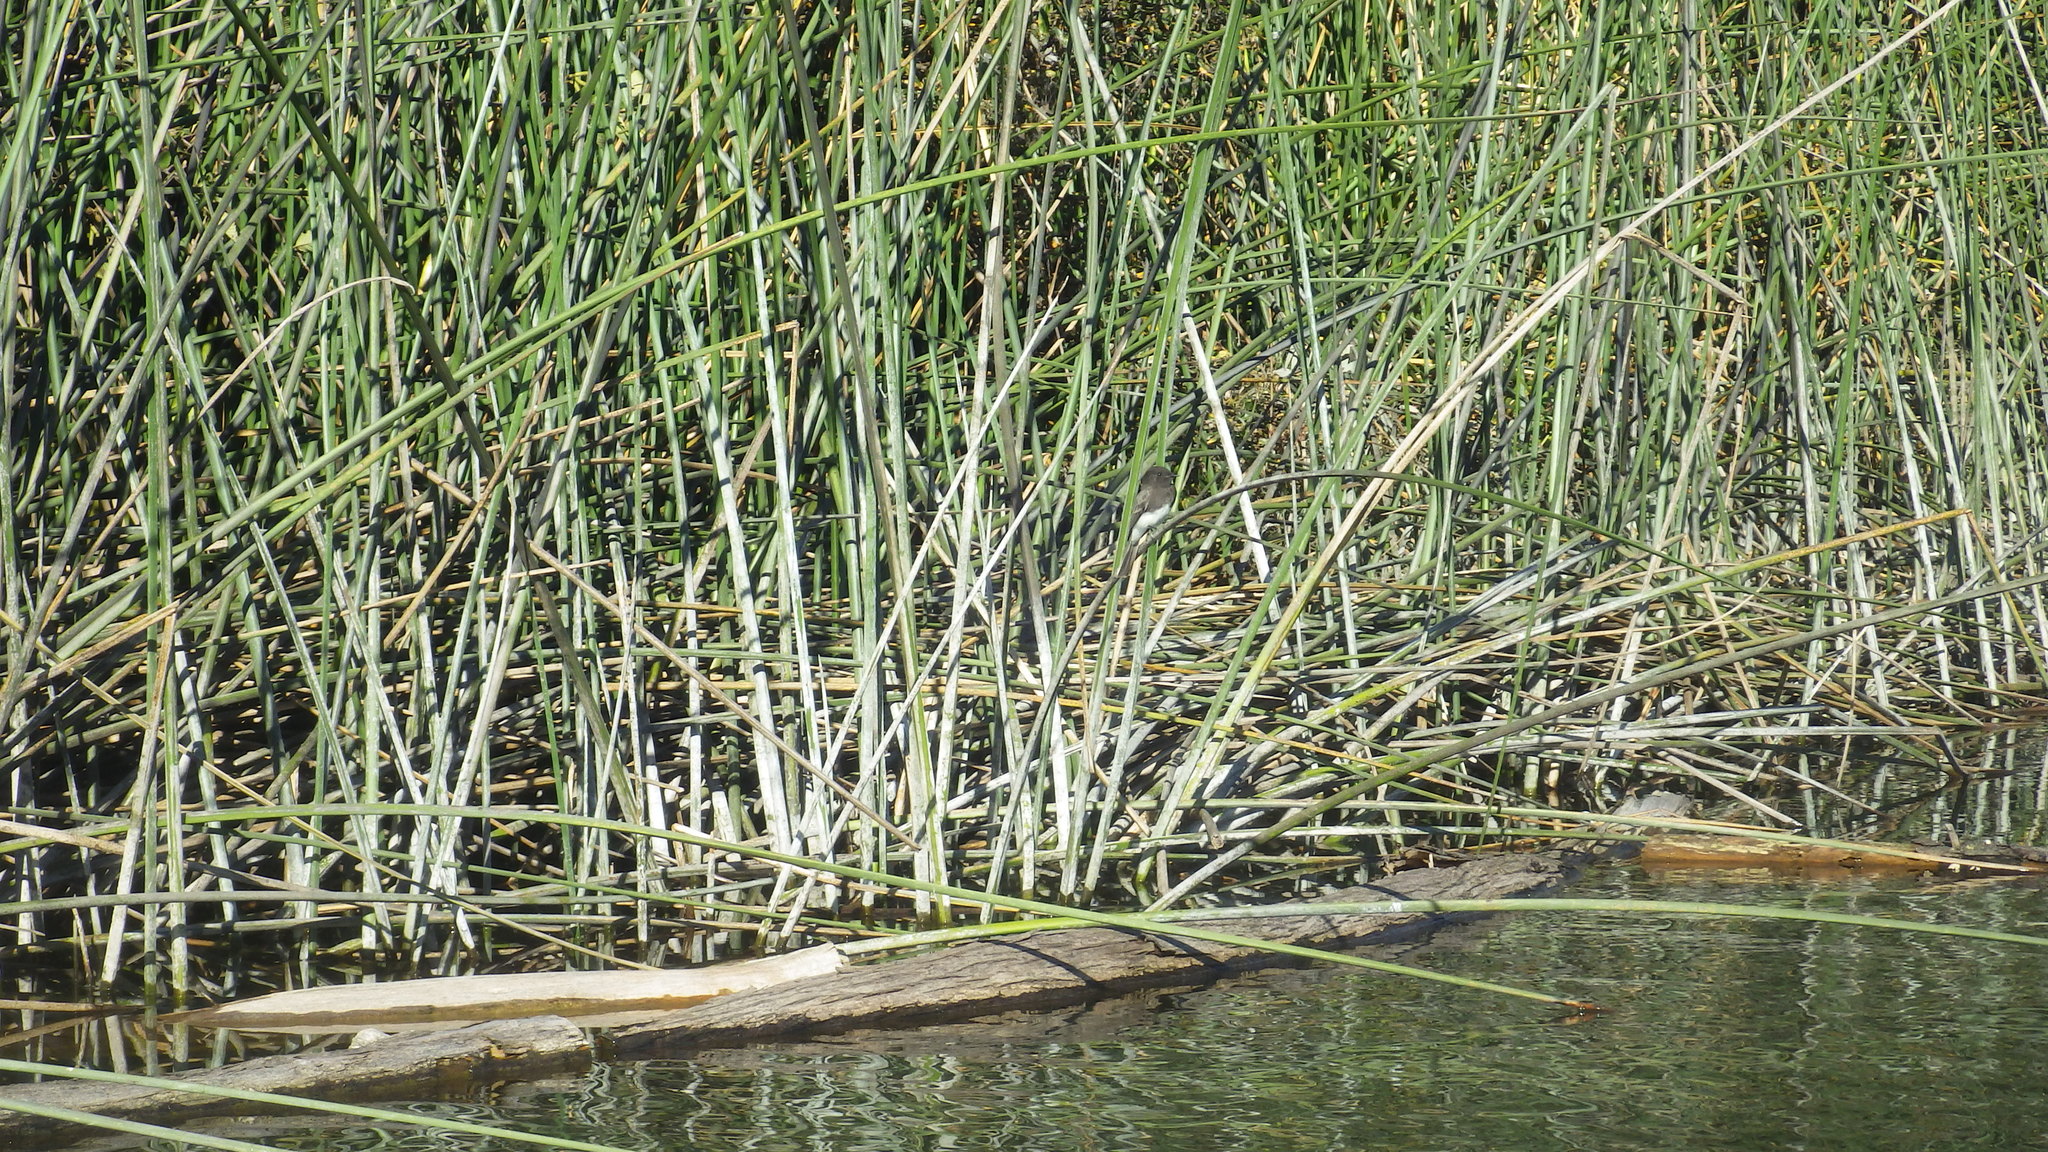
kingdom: Animalia
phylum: Chordata
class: Aves
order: Passeriformes
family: Tyrannidae
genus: Sayornis
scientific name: Sayornis nigricans
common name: Black phoebe
